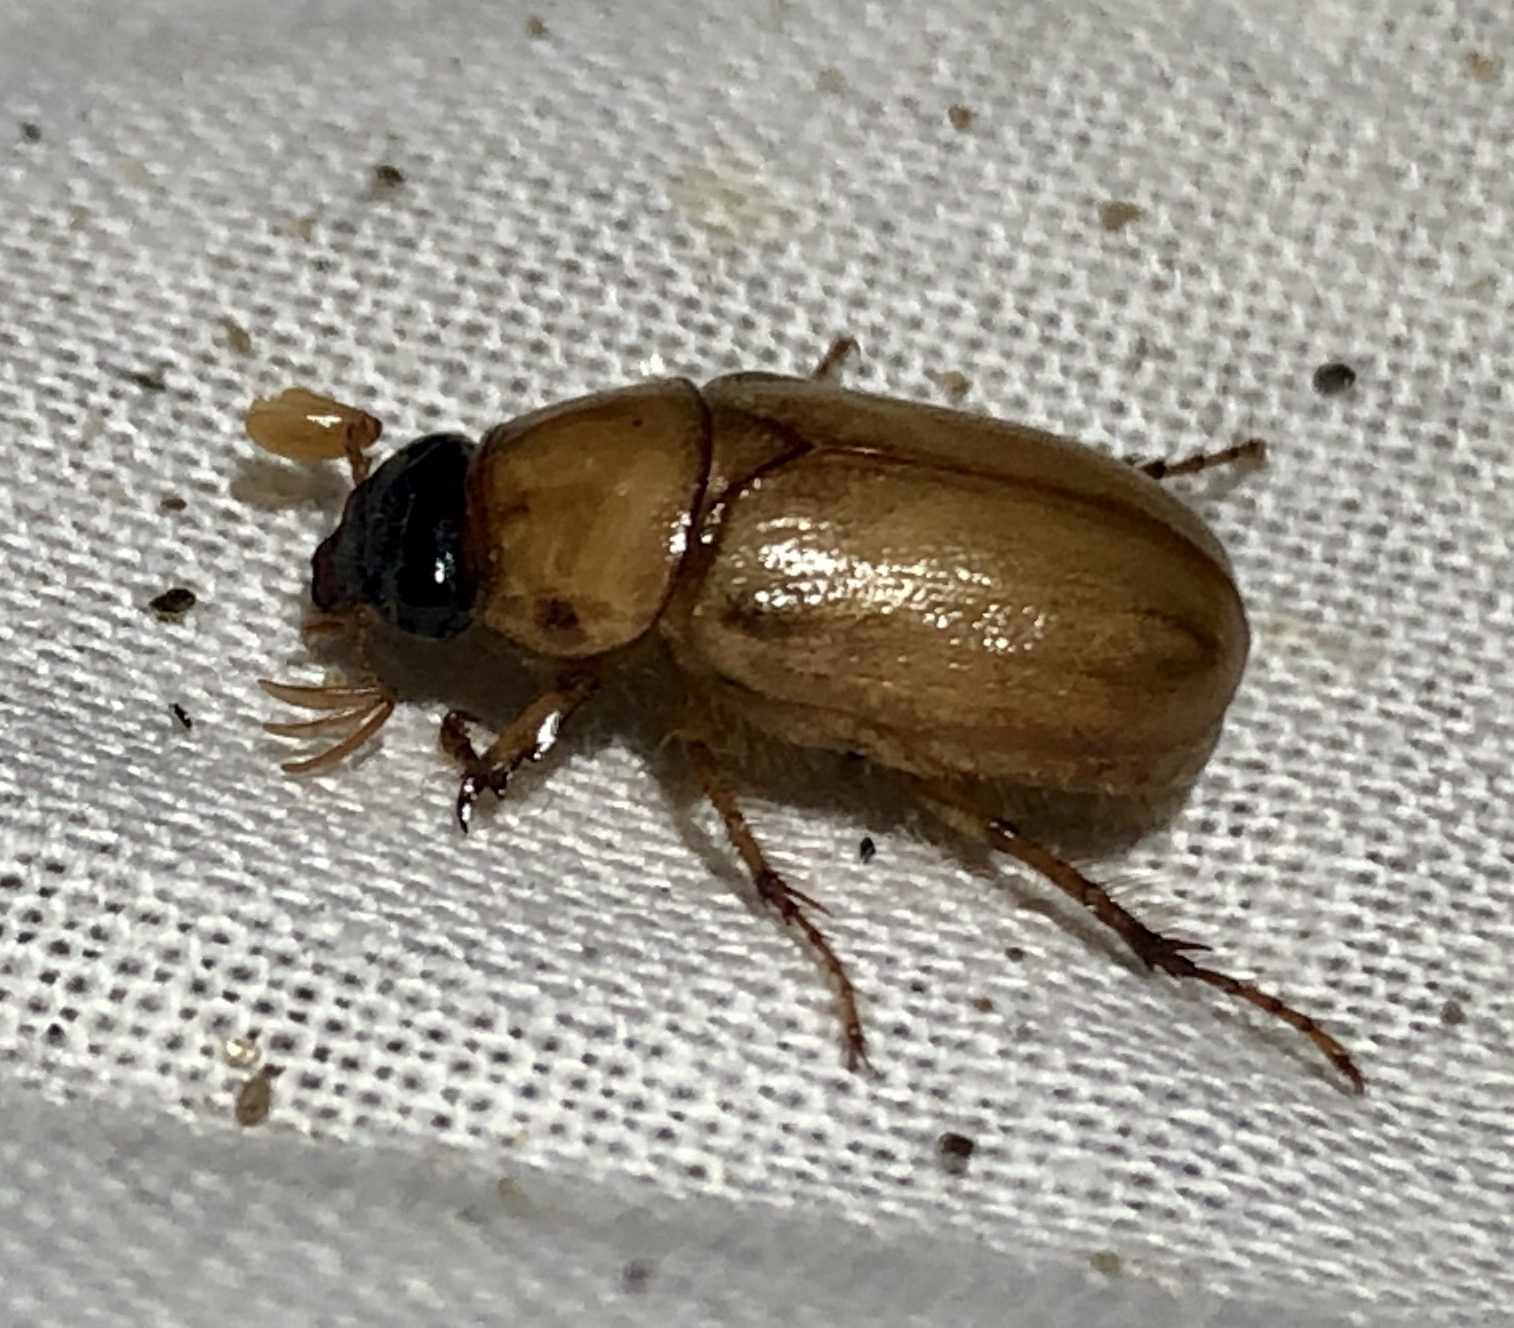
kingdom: Animalia
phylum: Arthropoda
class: Insecta
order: Coleoptera
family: Scarabaeidae
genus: Cyclocephala
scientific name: Cyclocephala longula
